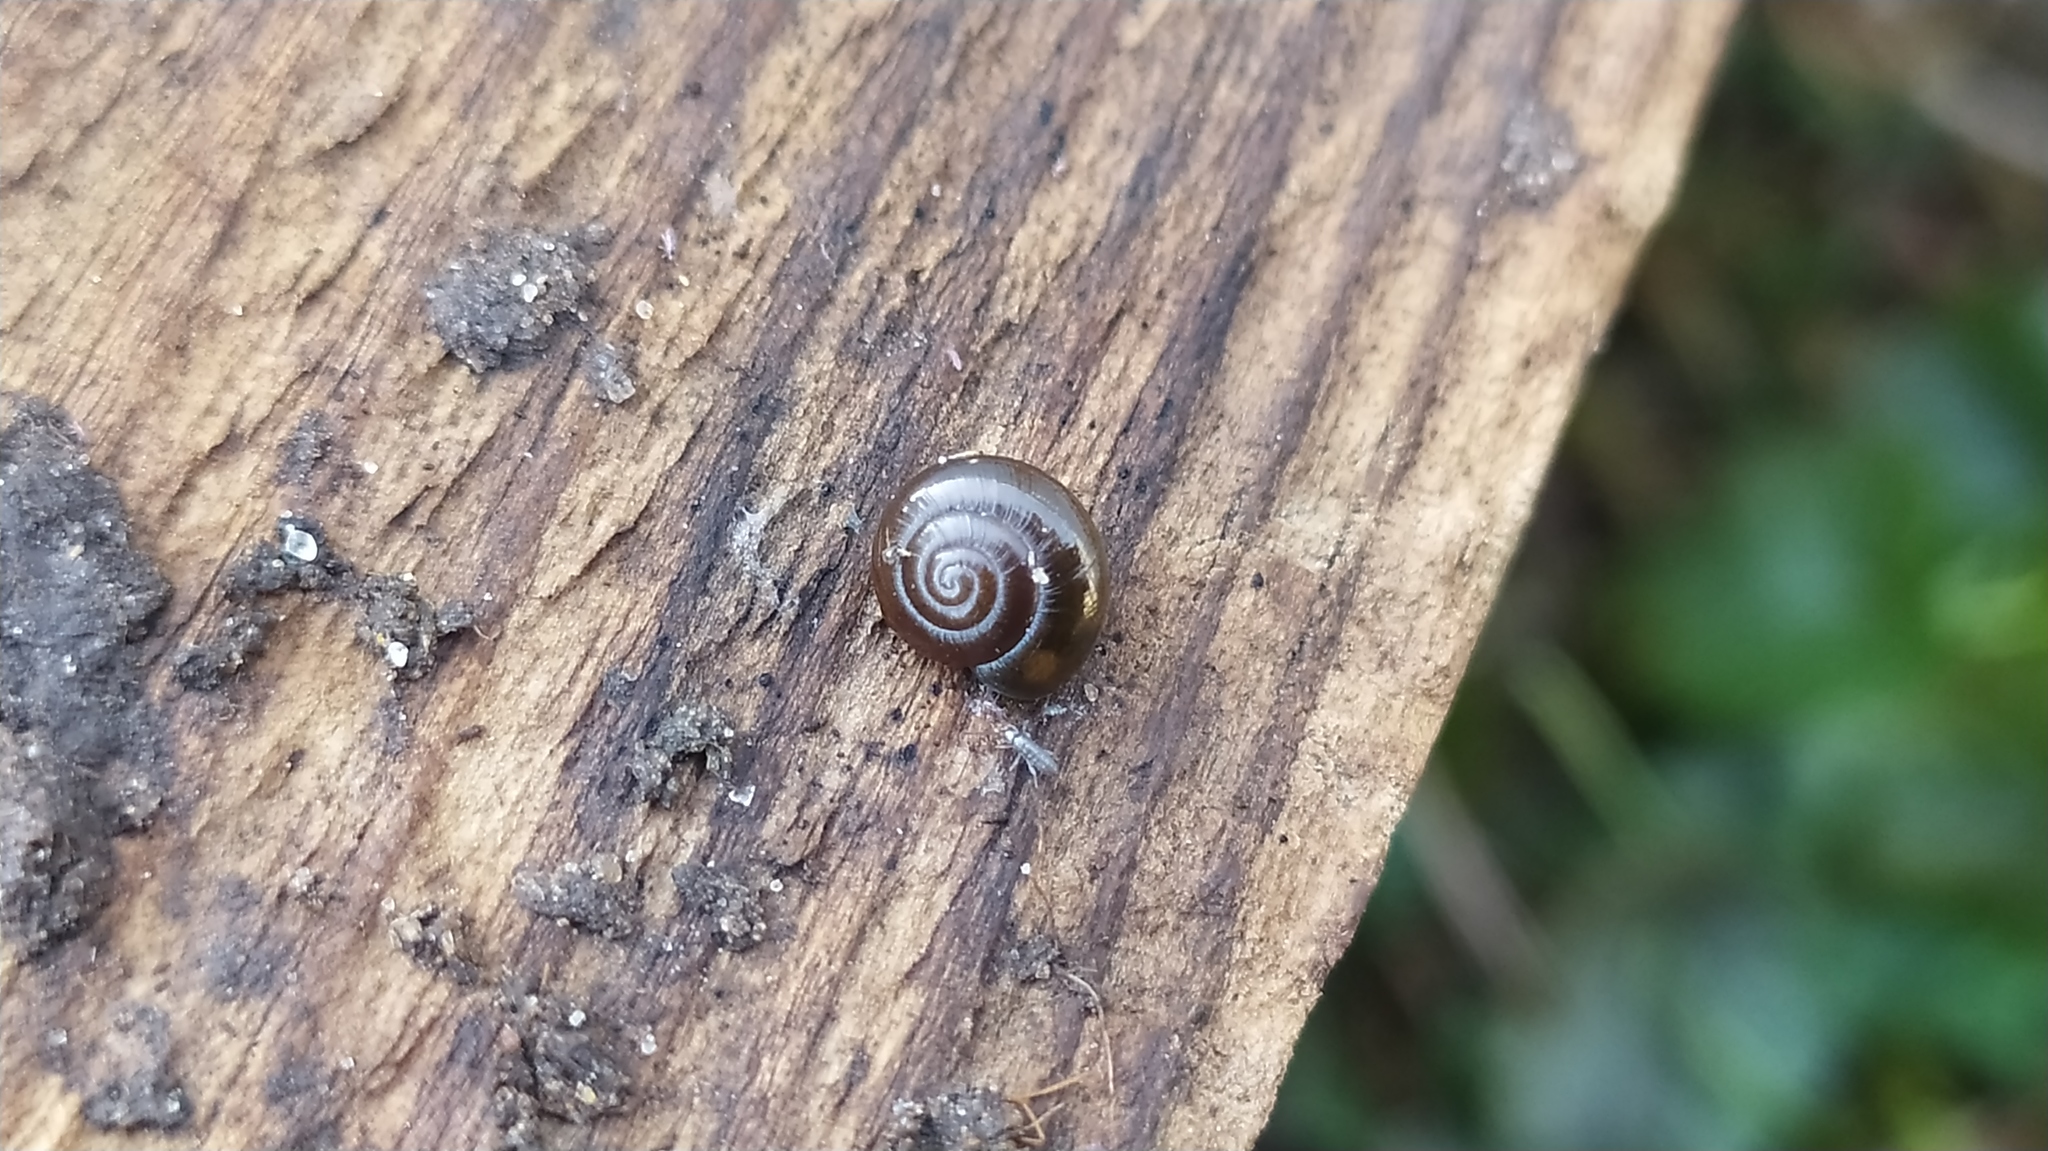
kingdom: Animalia
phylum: Mollusca
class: Gastropoda
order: Stylommatophora
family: Gastrodontidae
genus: Zonitoides
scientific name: Zonitoides nitidus
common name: Shiny glass snail
